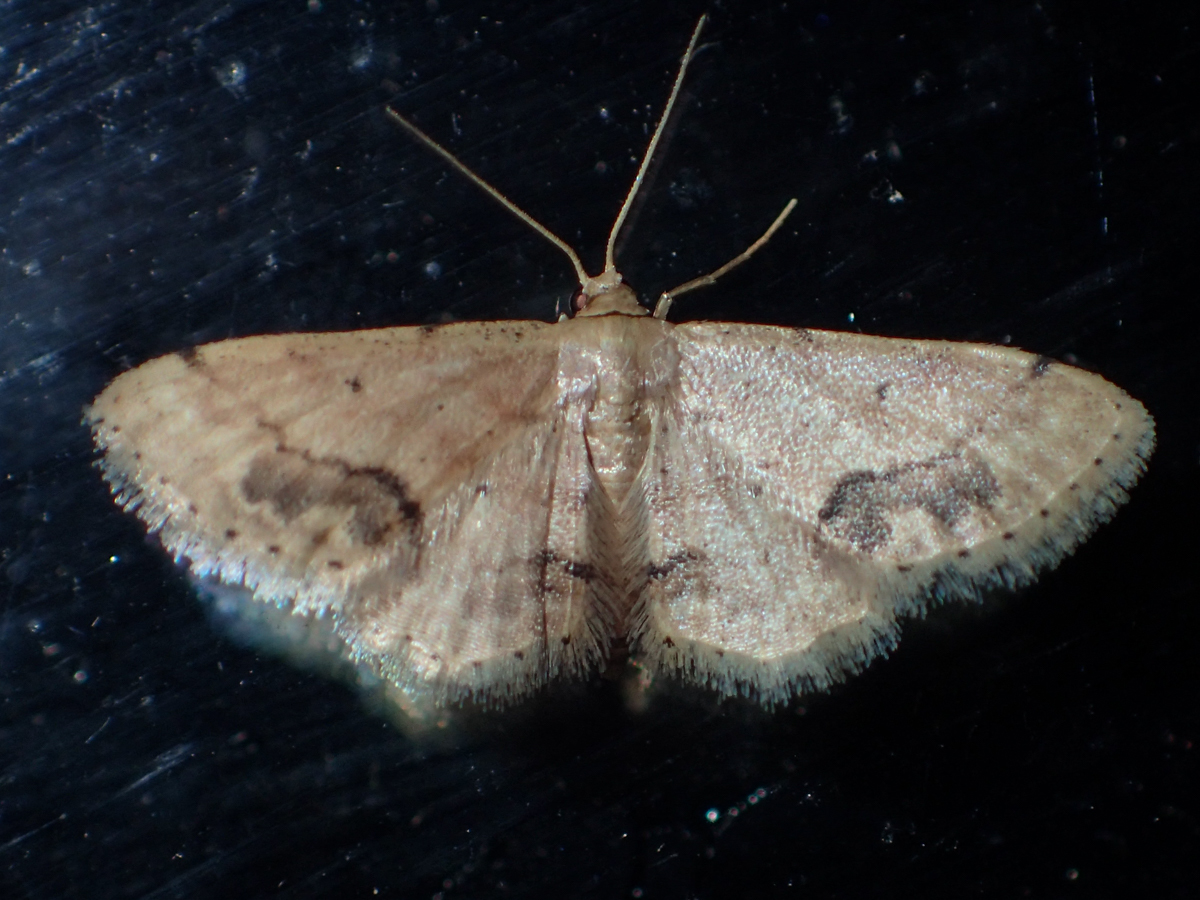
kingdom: Animalia
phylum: Arthropoda
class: Insecta
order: Lepidoptera
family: Geometridae
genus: Idaea
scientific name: Idaea chotaria
